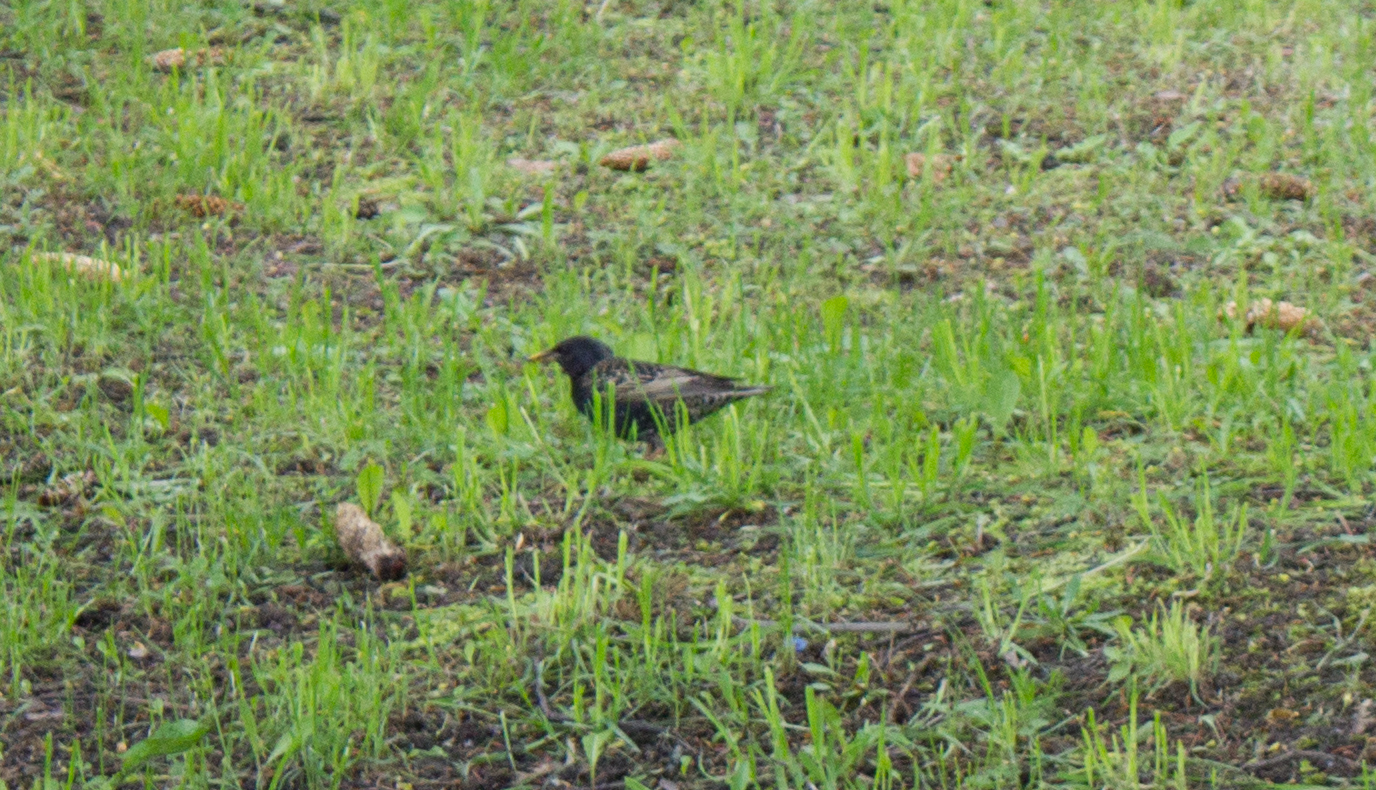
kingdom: Animalia
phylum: Chordata
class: Aves
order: Passeriformes
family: Sturnidae
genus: Sturnus
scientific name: Sturnus vulgaris
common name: Common starling
